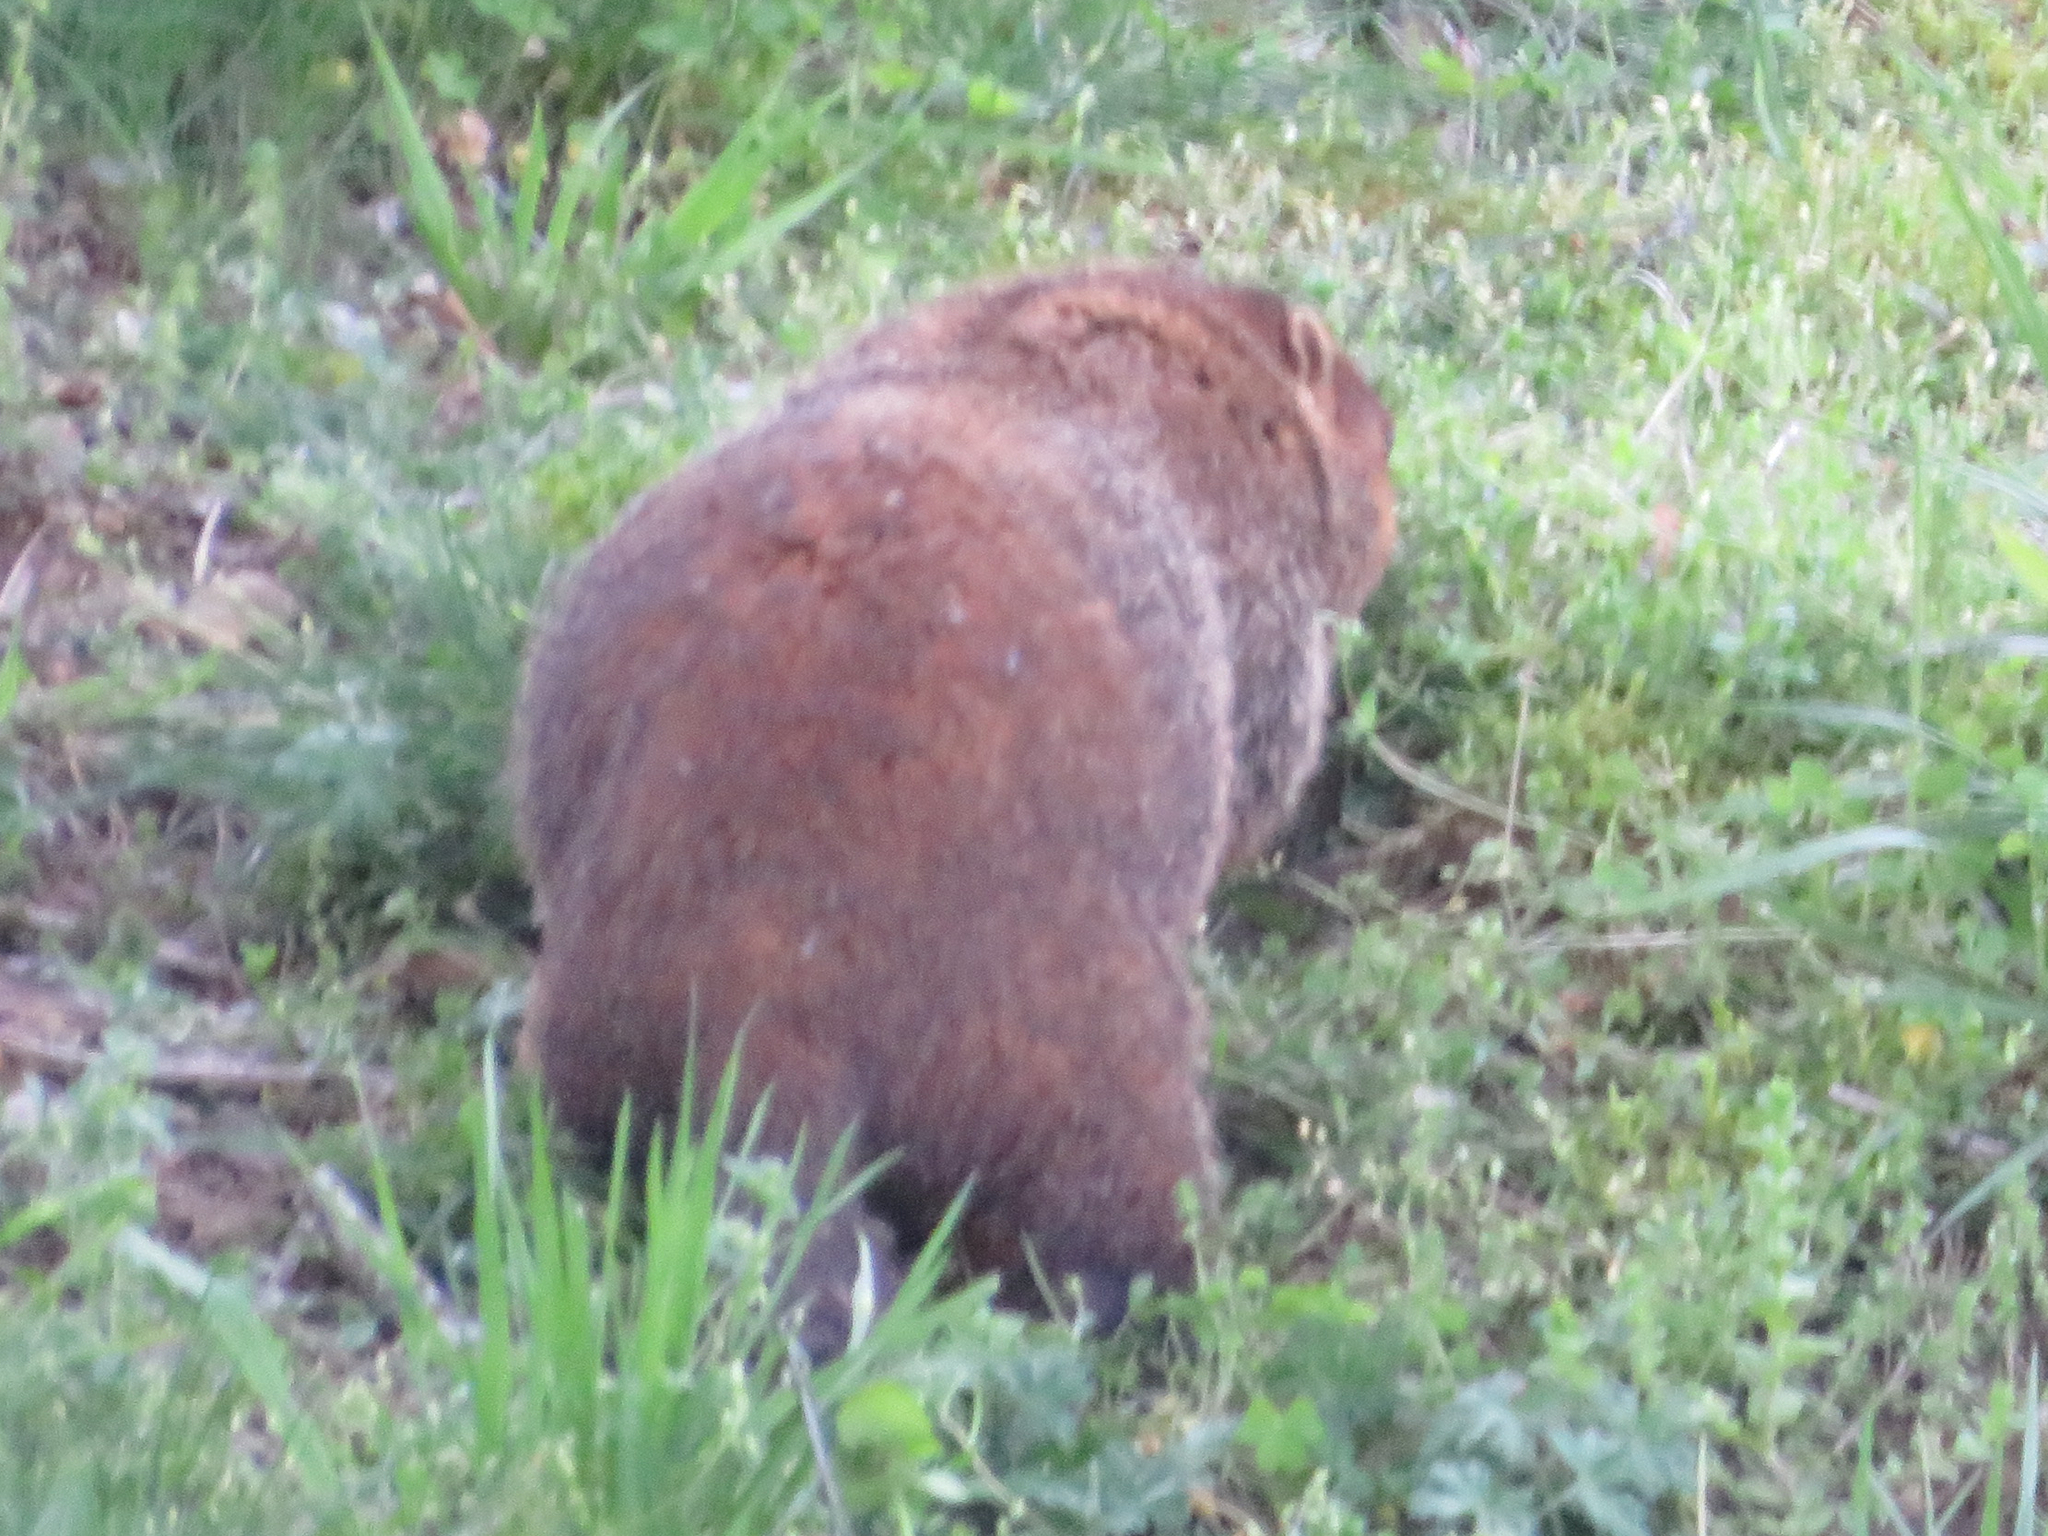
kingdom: Animalia
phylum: Chordata
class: Mammalia
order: Rodentia
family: Sciuridae
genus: Marmota
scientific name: Marmota monax
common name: Groundhog
